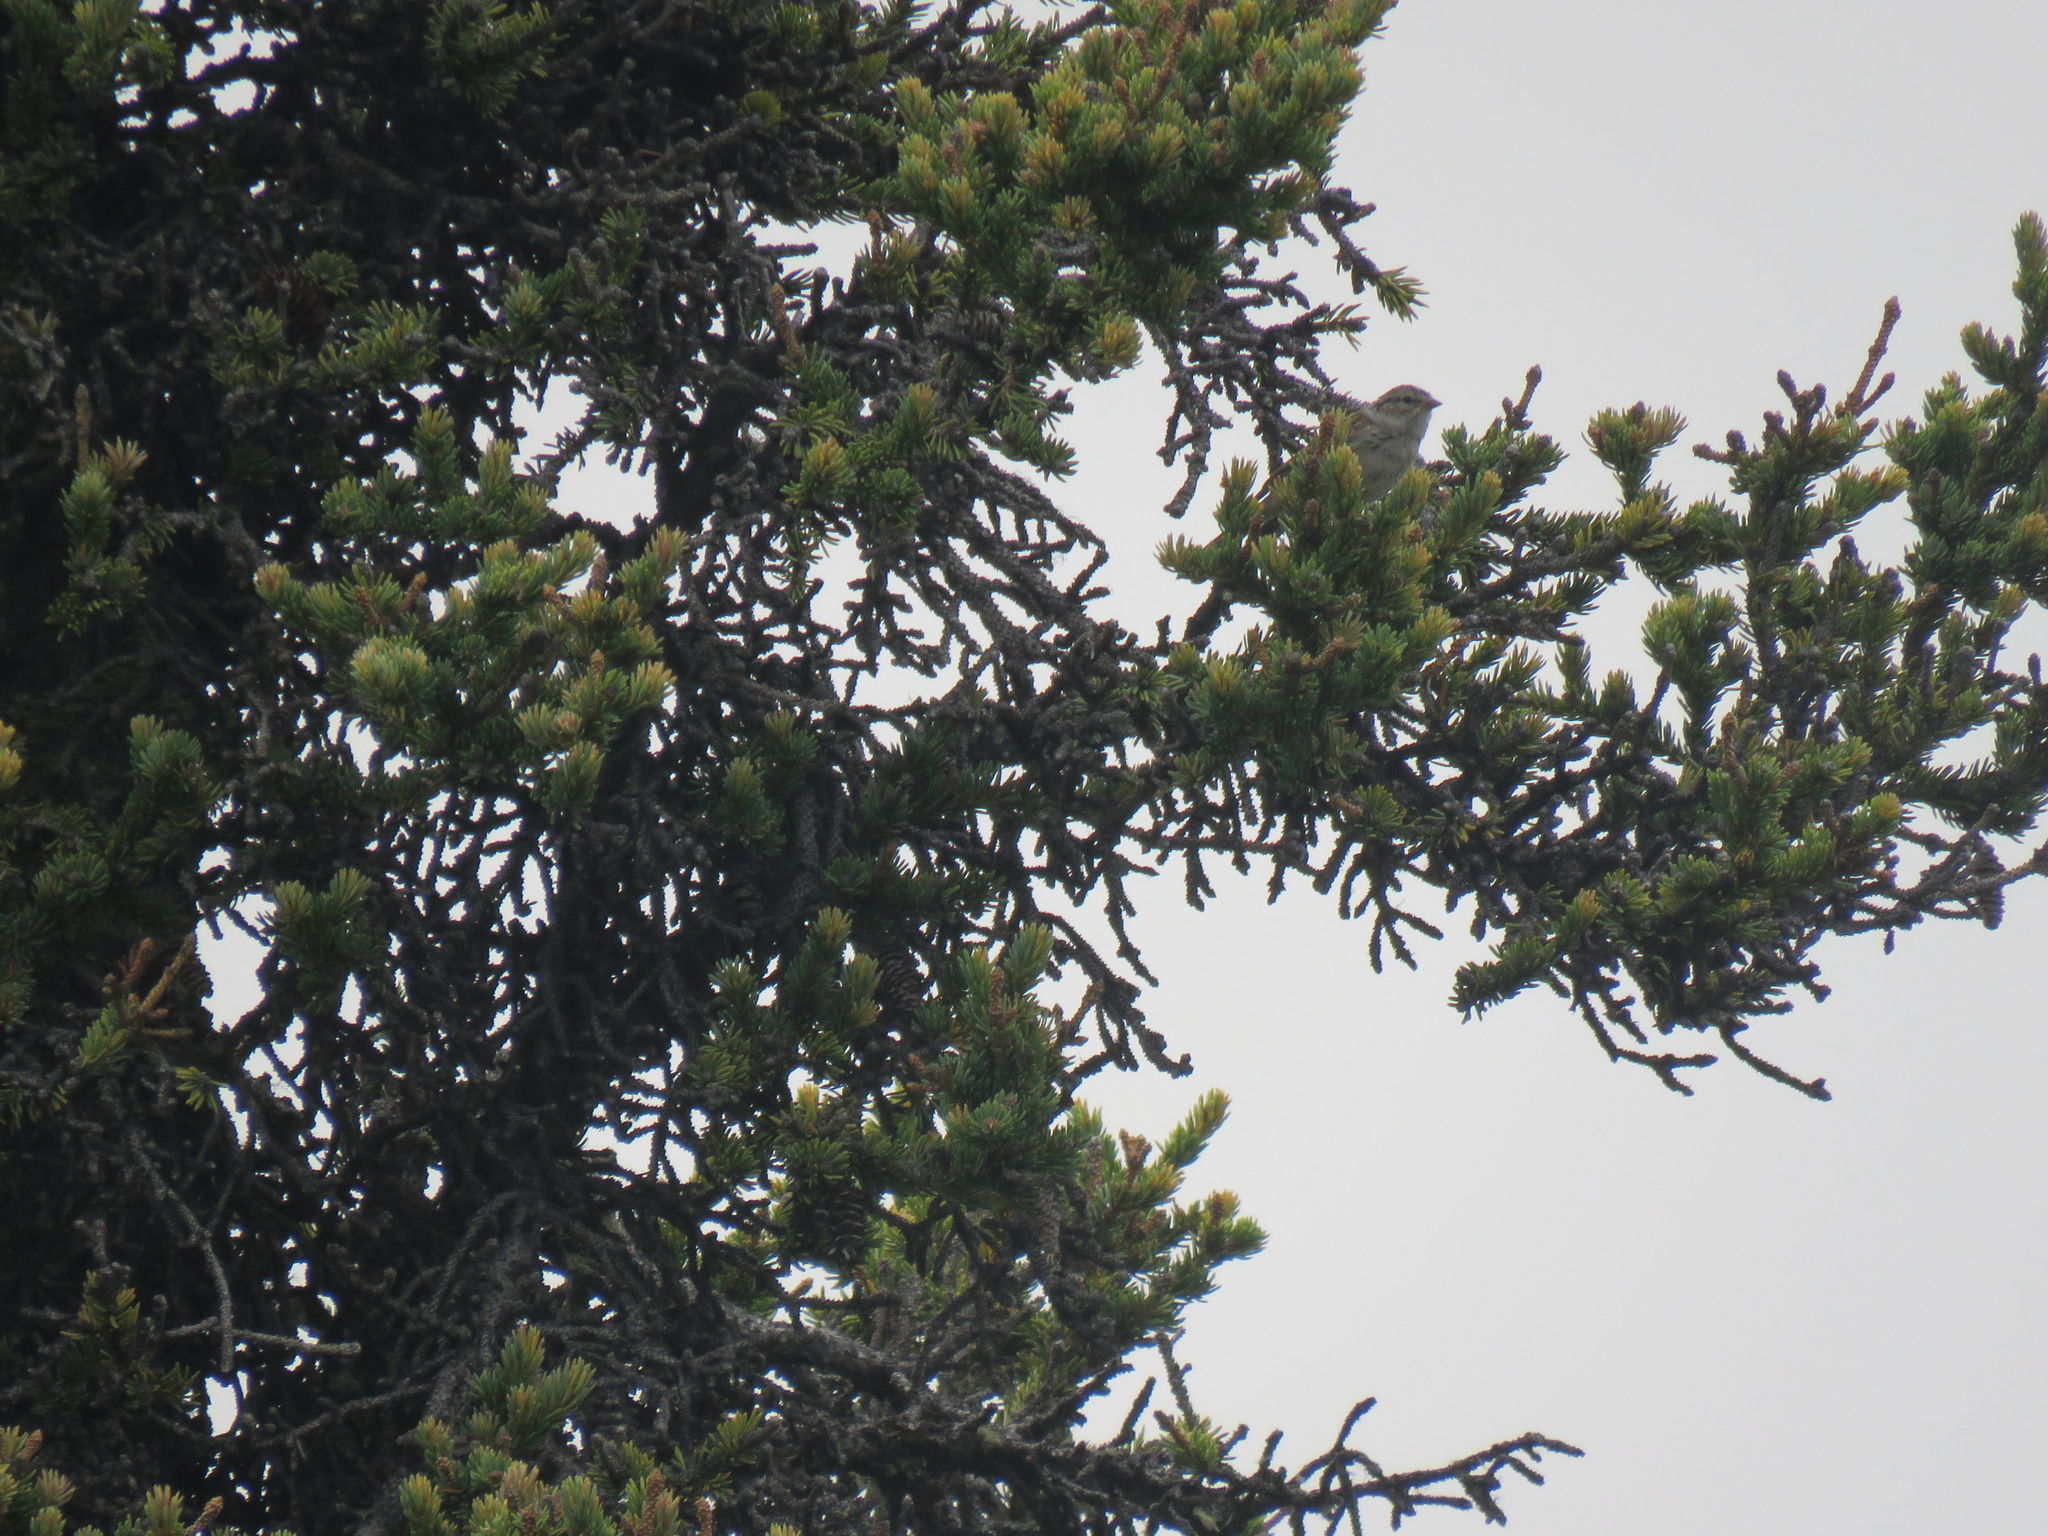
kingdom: Animalia
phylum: Chordata
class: Aves
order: Passeriformes
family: Passerellidae
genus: Spizella
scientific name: Spizella passerina
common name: Chipping sparrow
